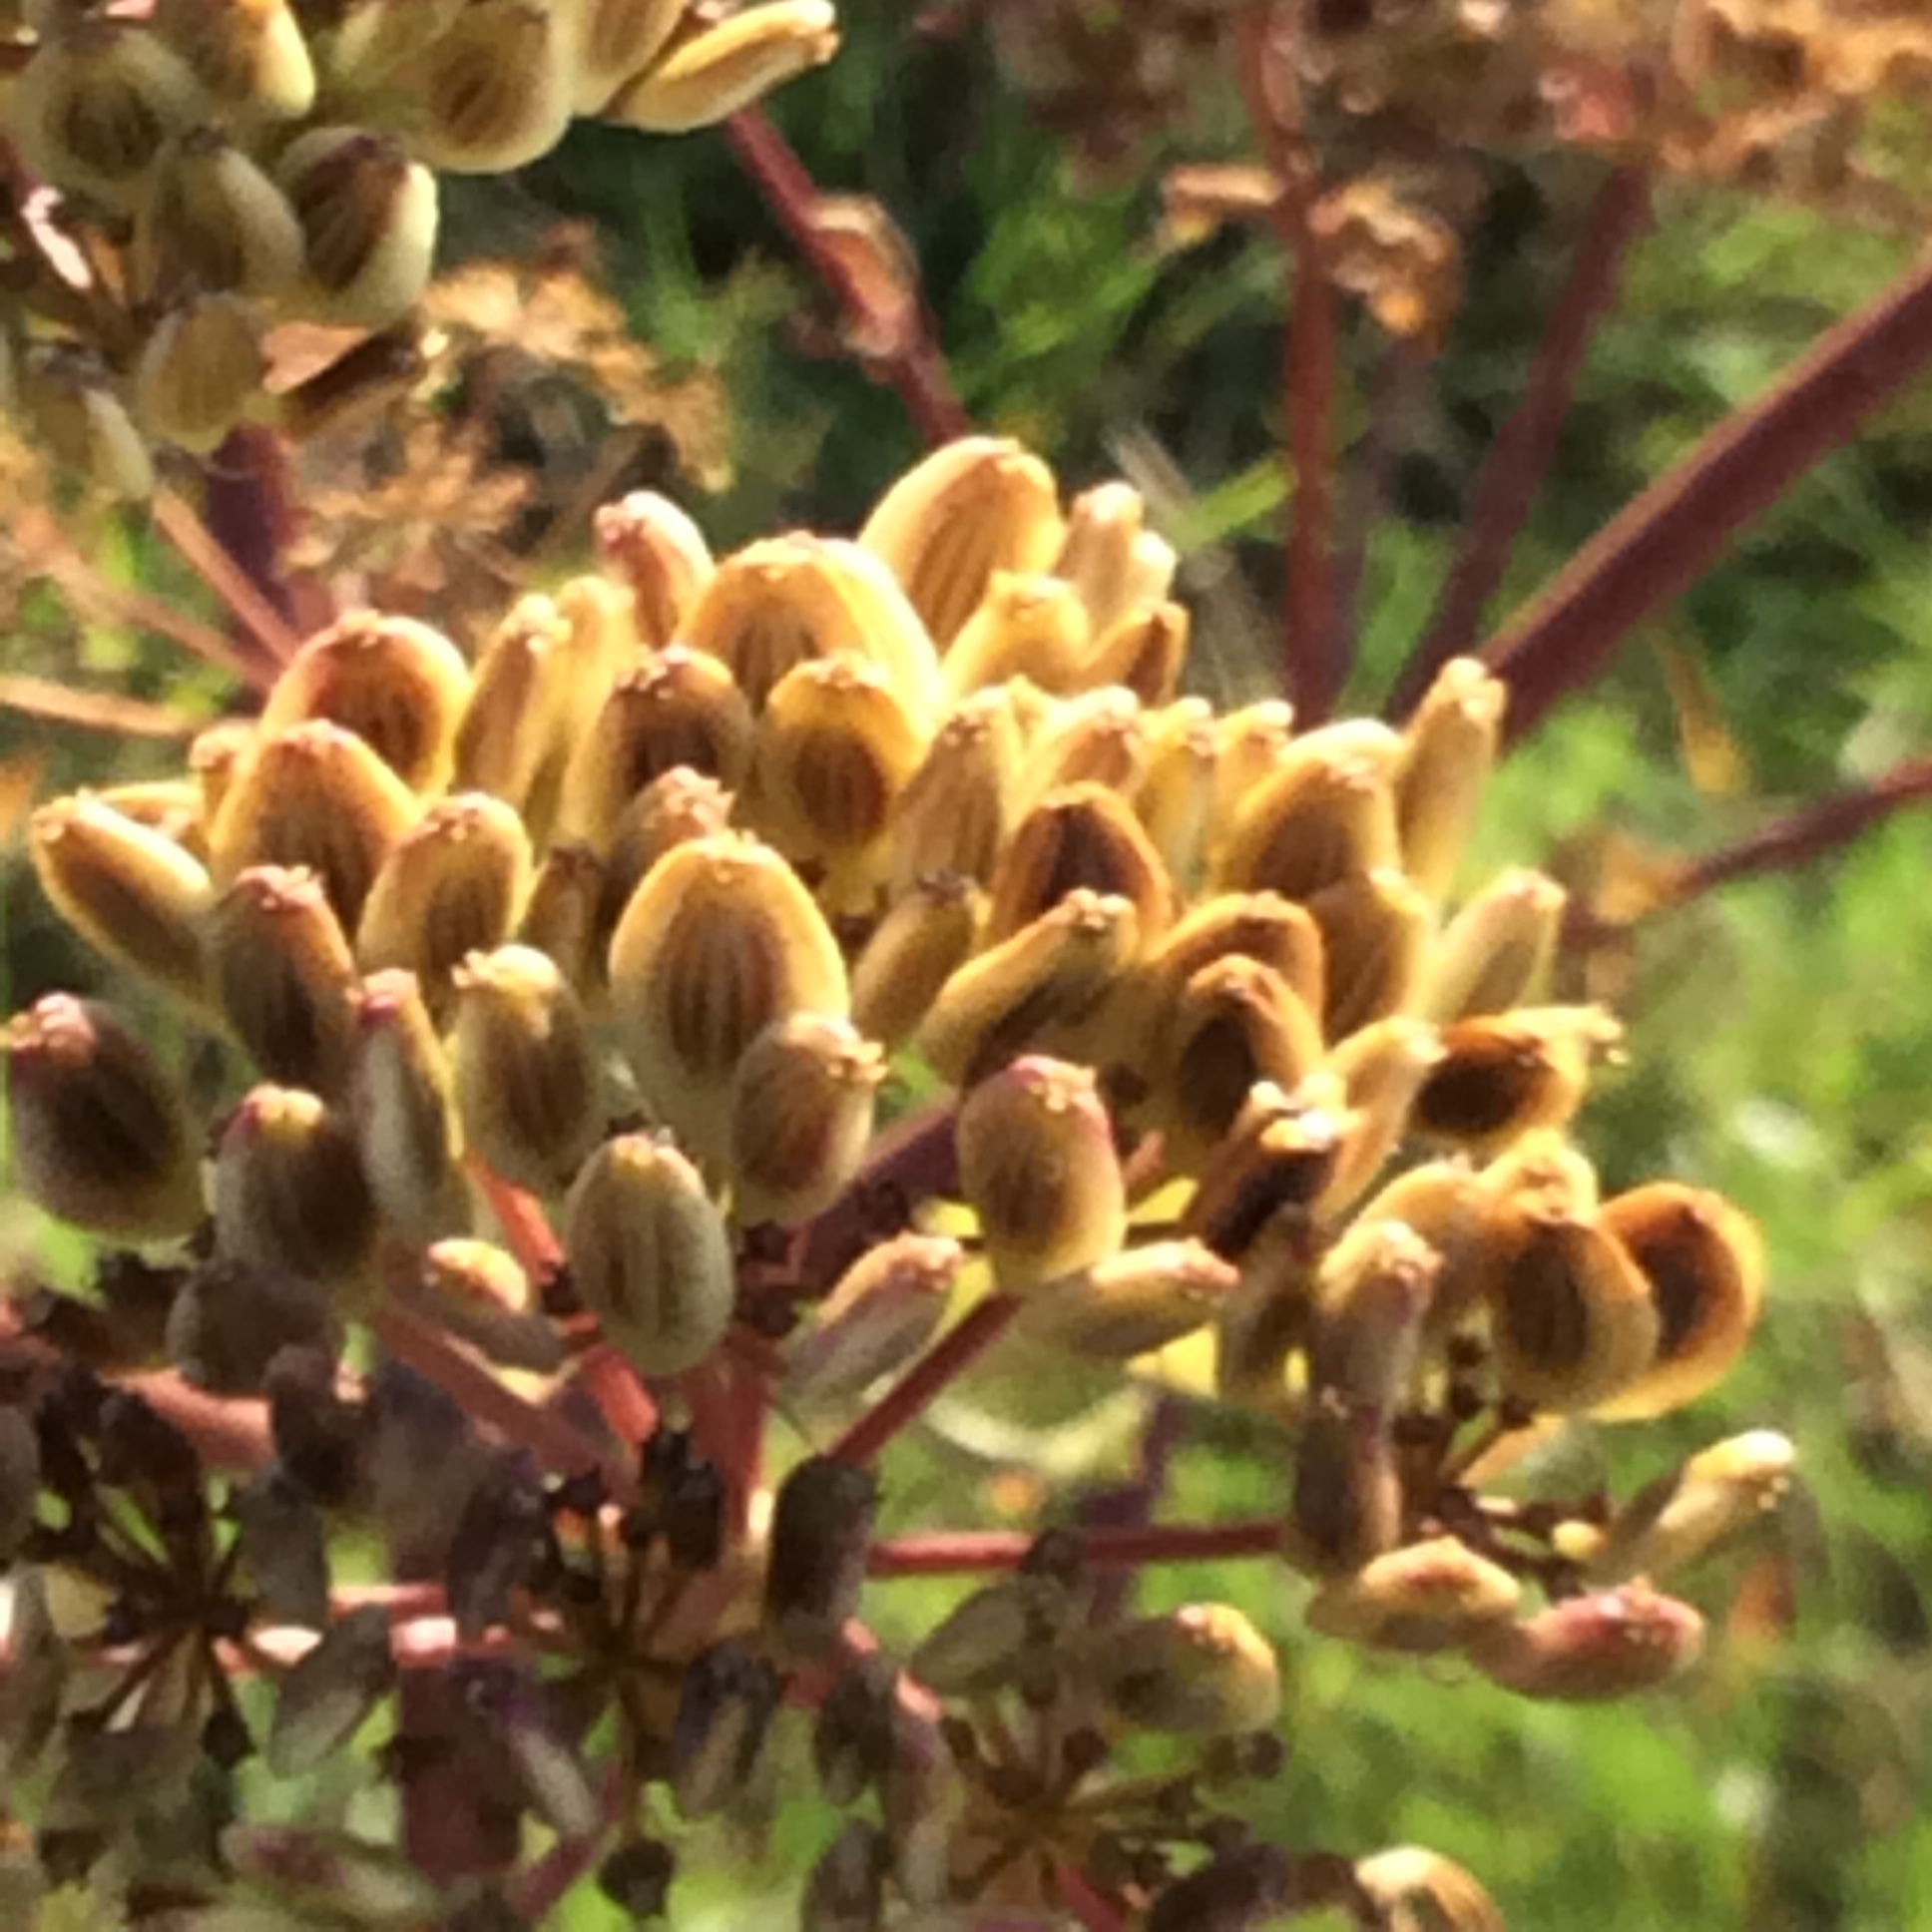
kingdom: Plantae
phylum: Tracheophyta
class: Magnoliopsida
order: Apiales
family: Apiaceae
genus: Polytaenia
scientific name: Polytaenia texana
